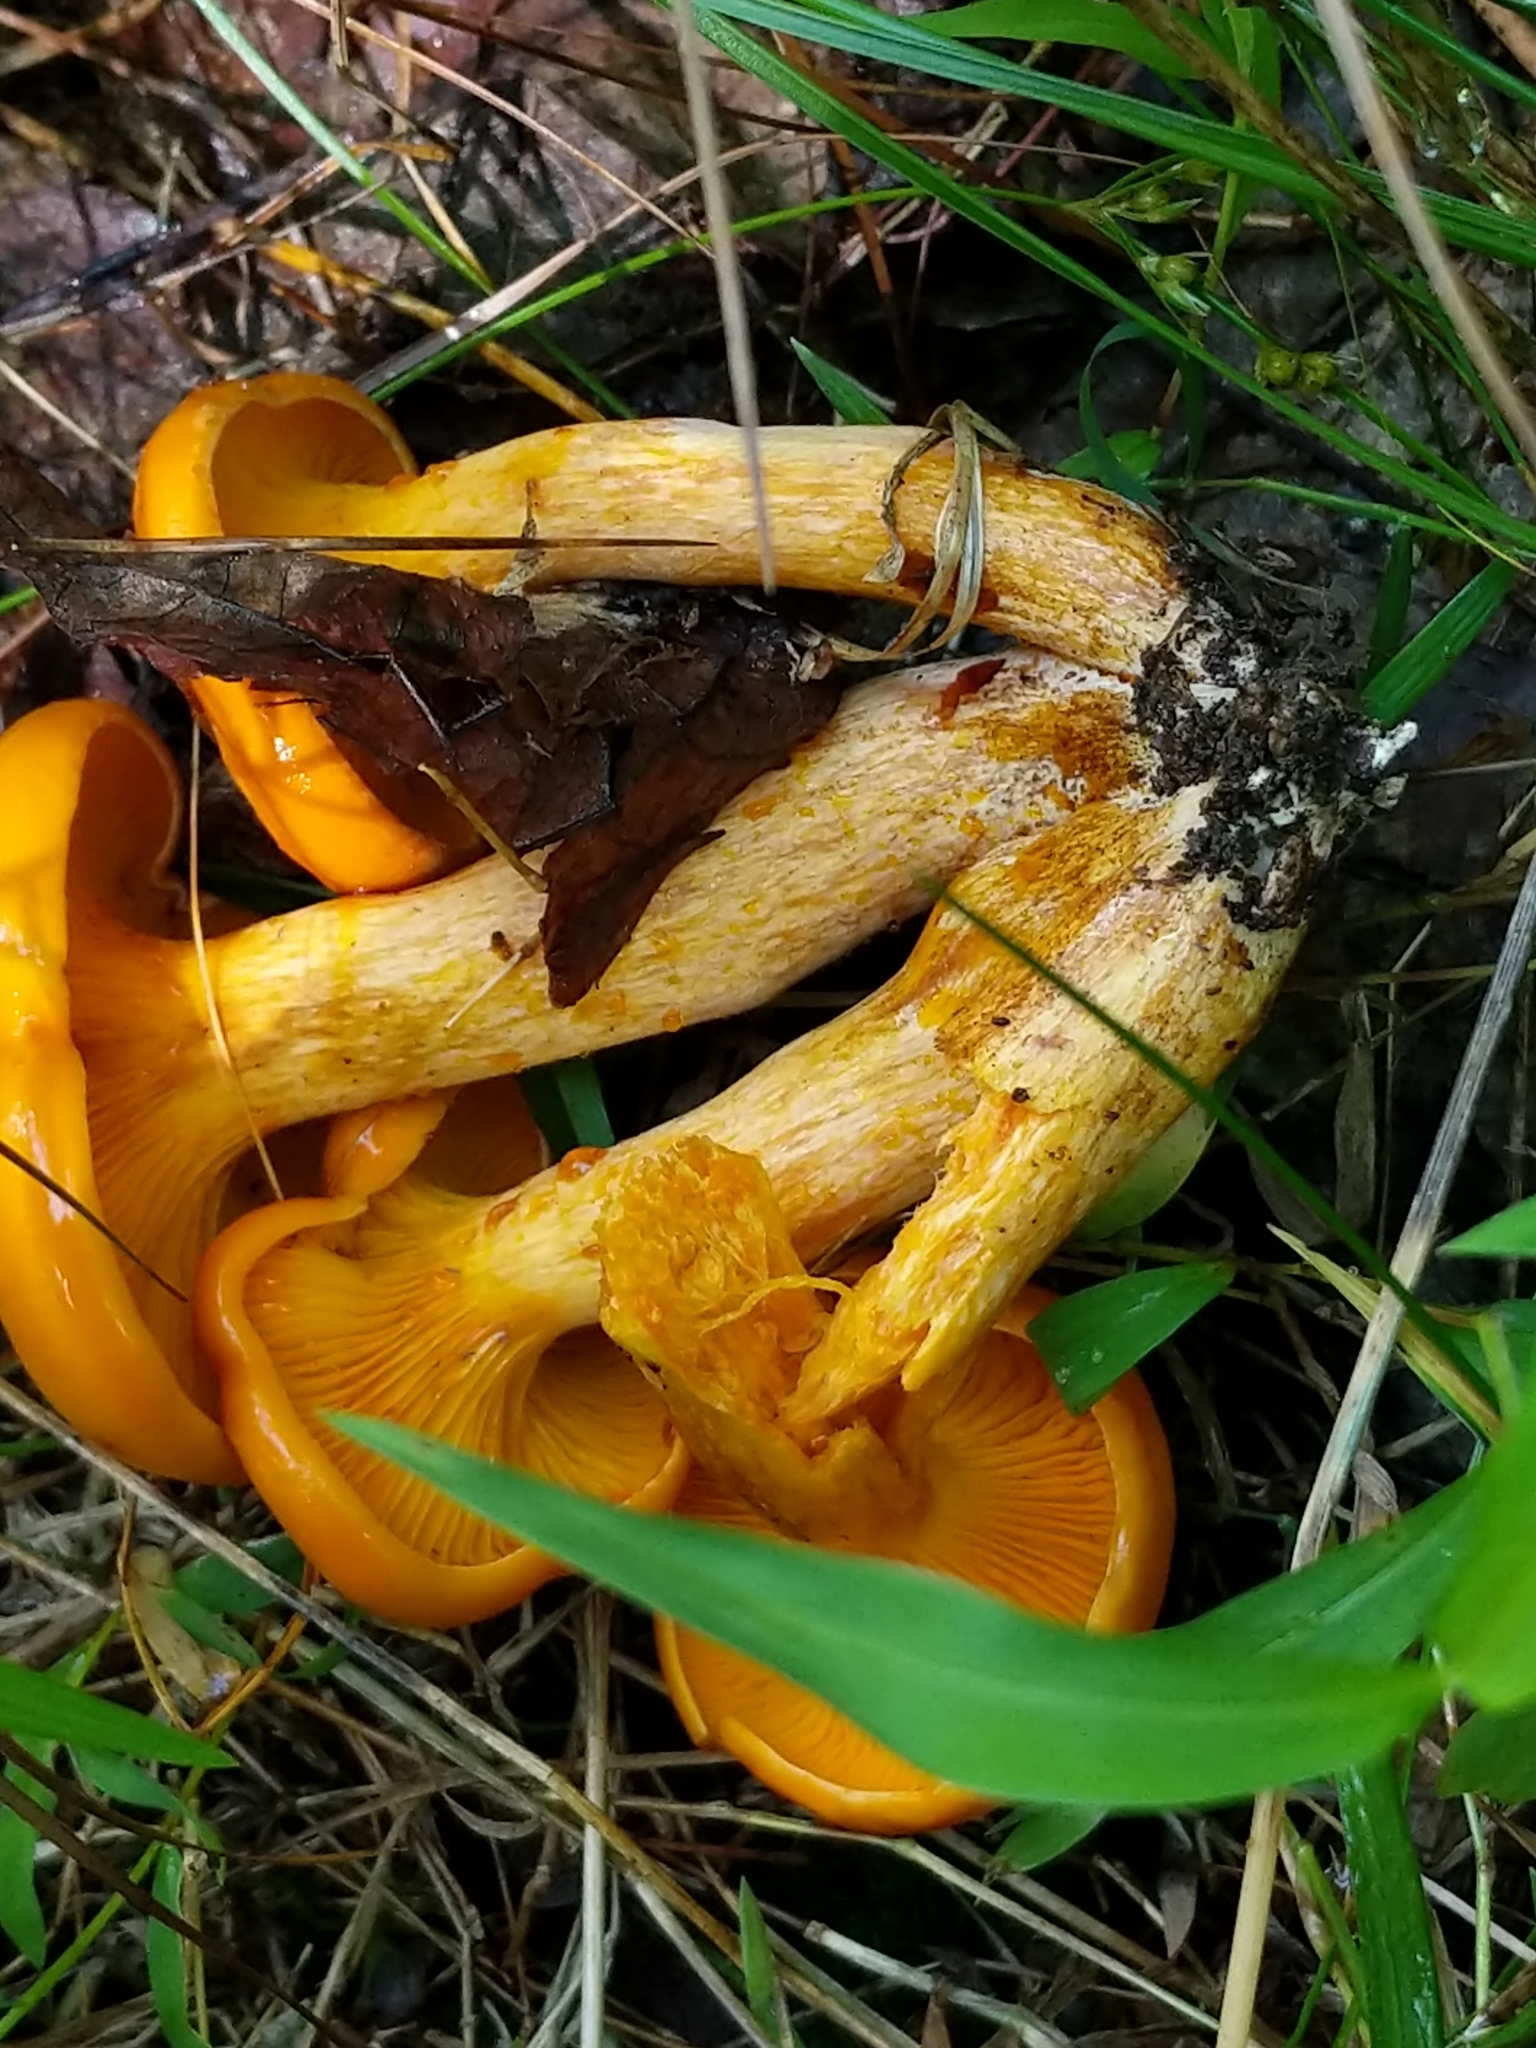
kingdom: Fungi
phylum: Basidiomycota
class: Agaricomycetes
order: Agaricales
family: Omphalotaceae
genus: Omphalotus
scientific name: Omphalotus illudens
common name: Jack o lantern
